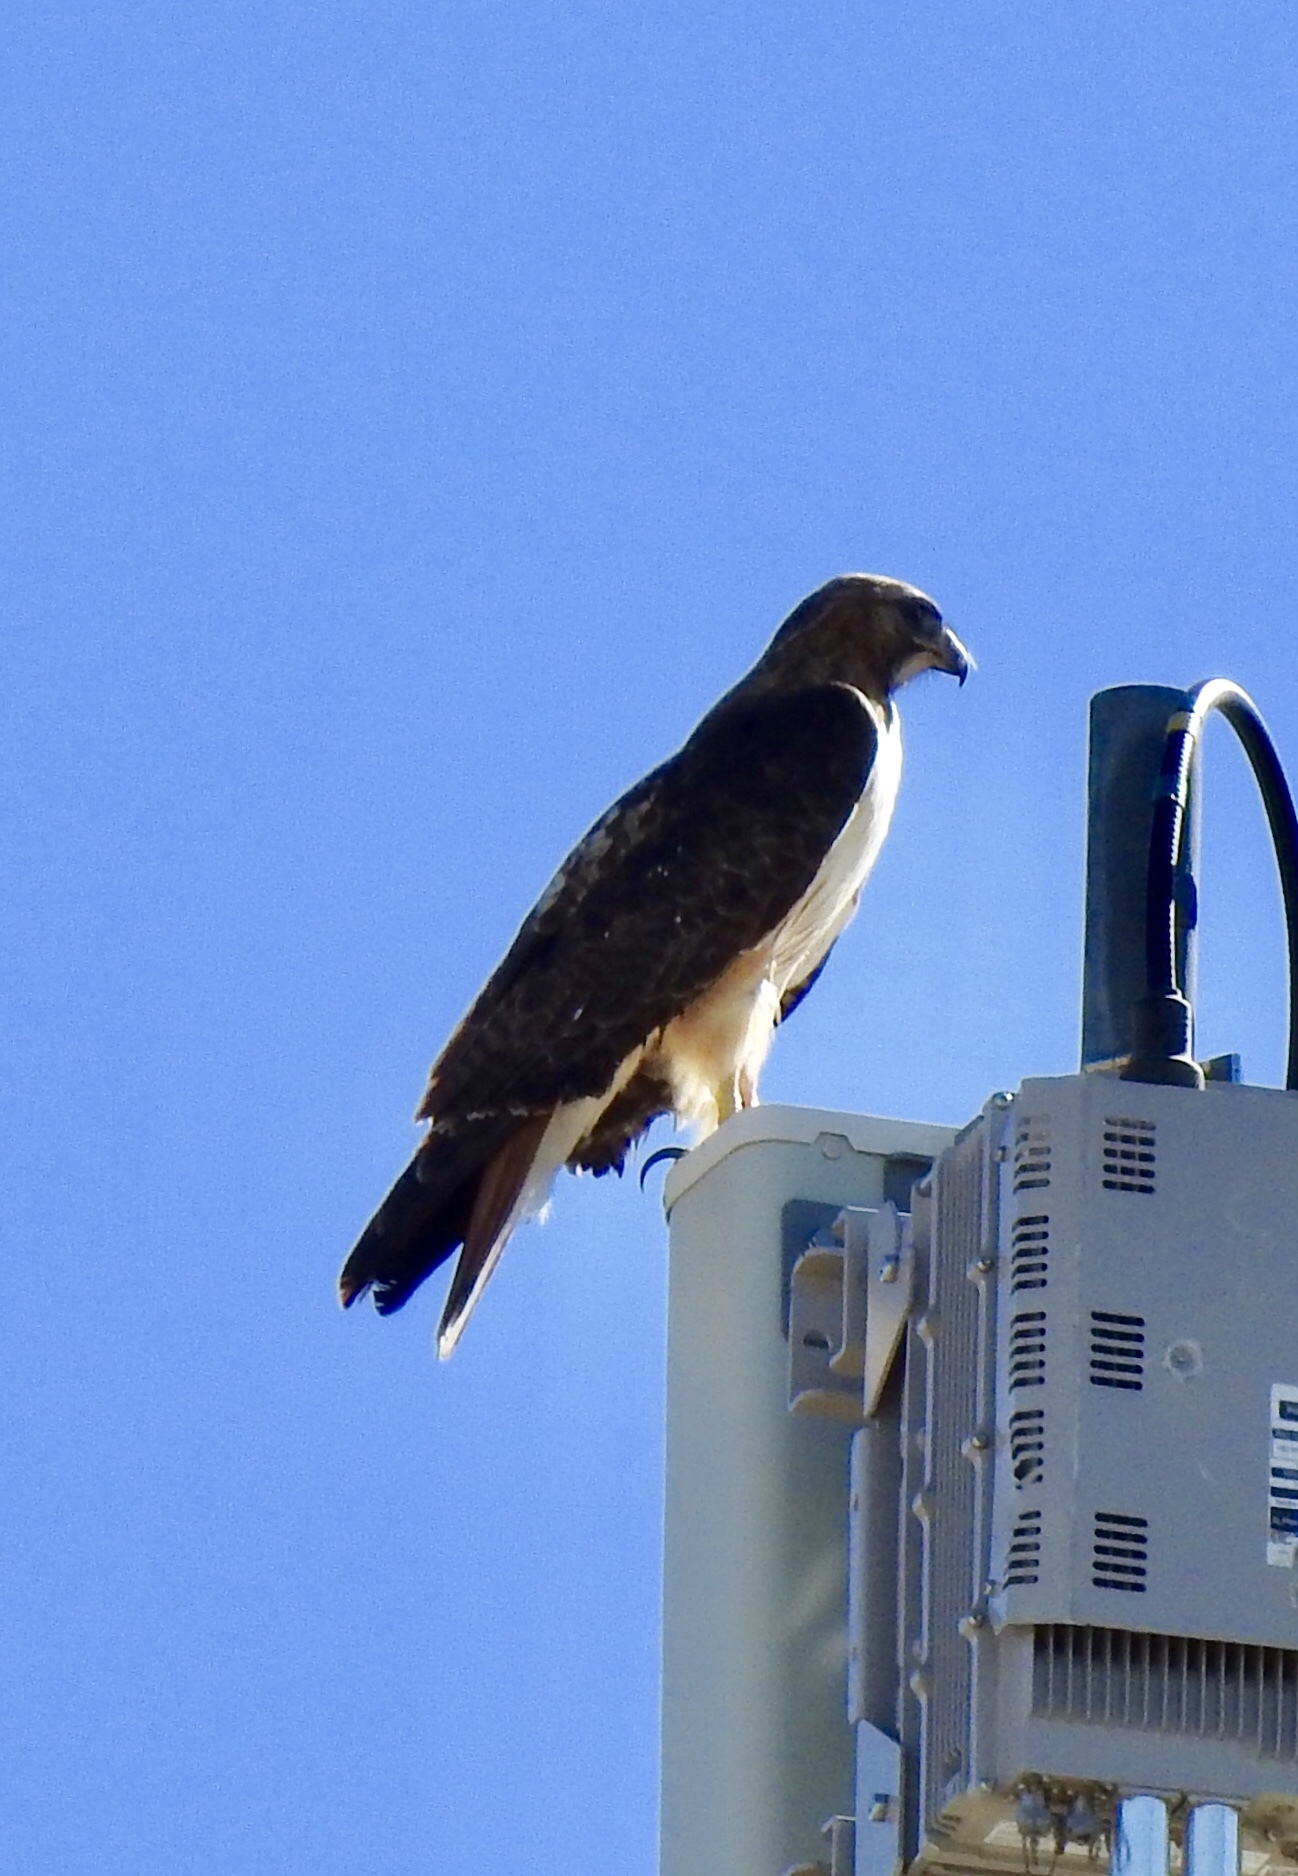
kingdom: Animalia
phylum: Chordata
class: Aves
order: Accipitriformes
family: Accipitridae
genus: Buteo
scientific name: Buteo jamaicensis
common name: Red-tailed hawk
